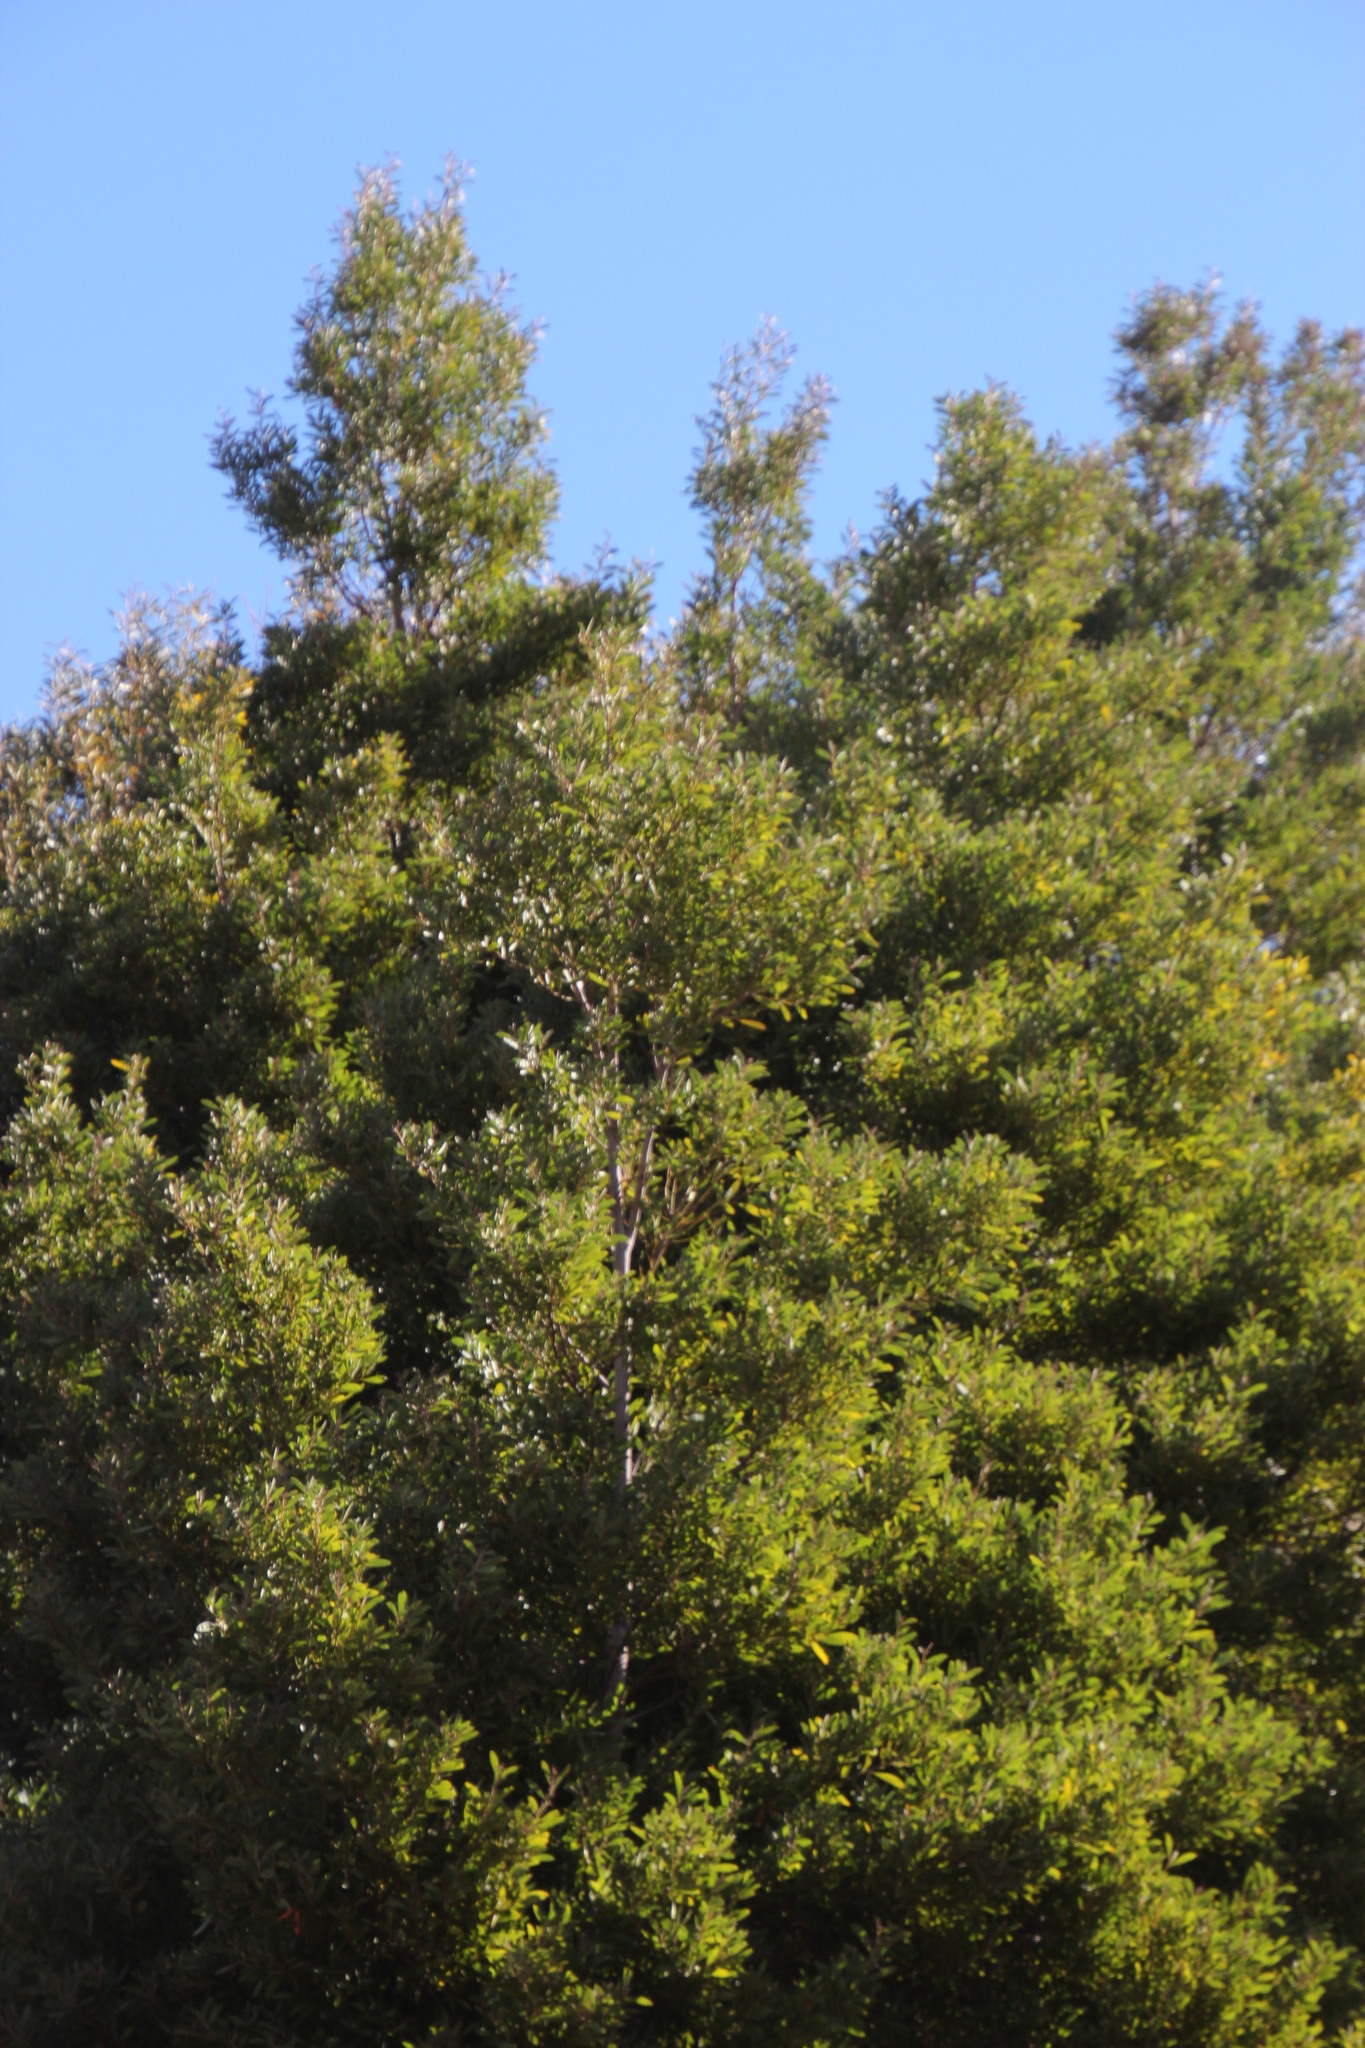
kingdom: Plantae
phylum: Tracheophyta
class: Magnoliopsida
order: Fabales
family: Fabaceae
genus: Acacia
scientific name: Acacia melanoxylon
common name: Blackwood
